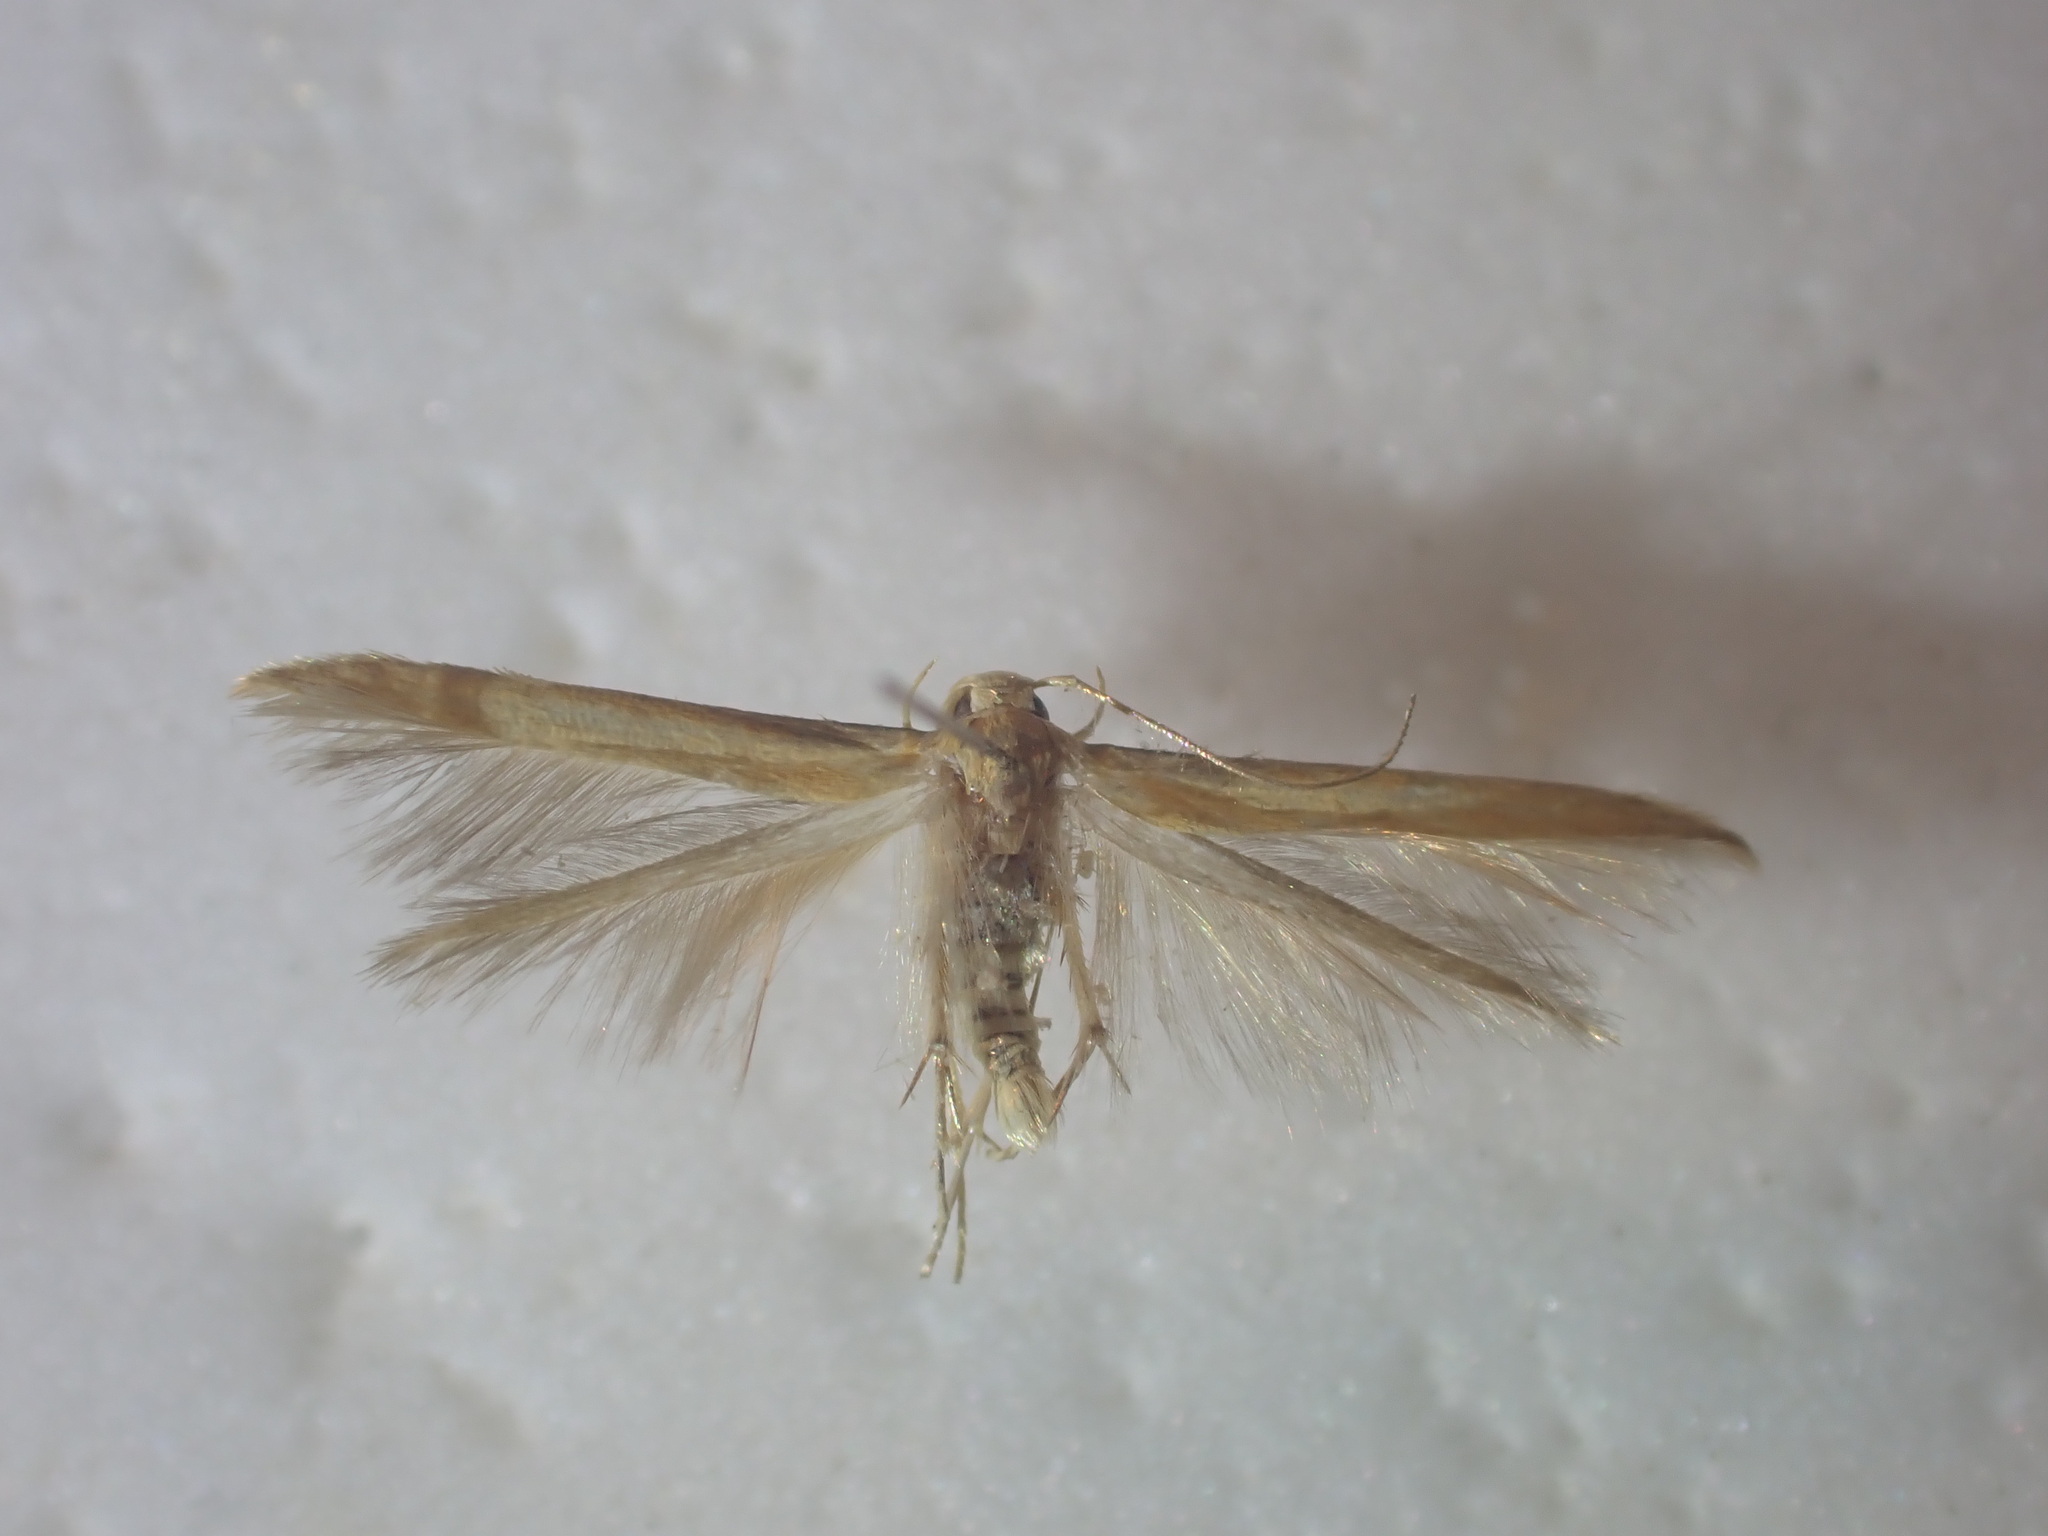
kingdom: Animalia
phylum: Arthropoda
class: Insecta
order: Lepidoptera
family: Stathmopodidae
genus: Stathmopoda
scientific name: Stathmopoda skelloni
